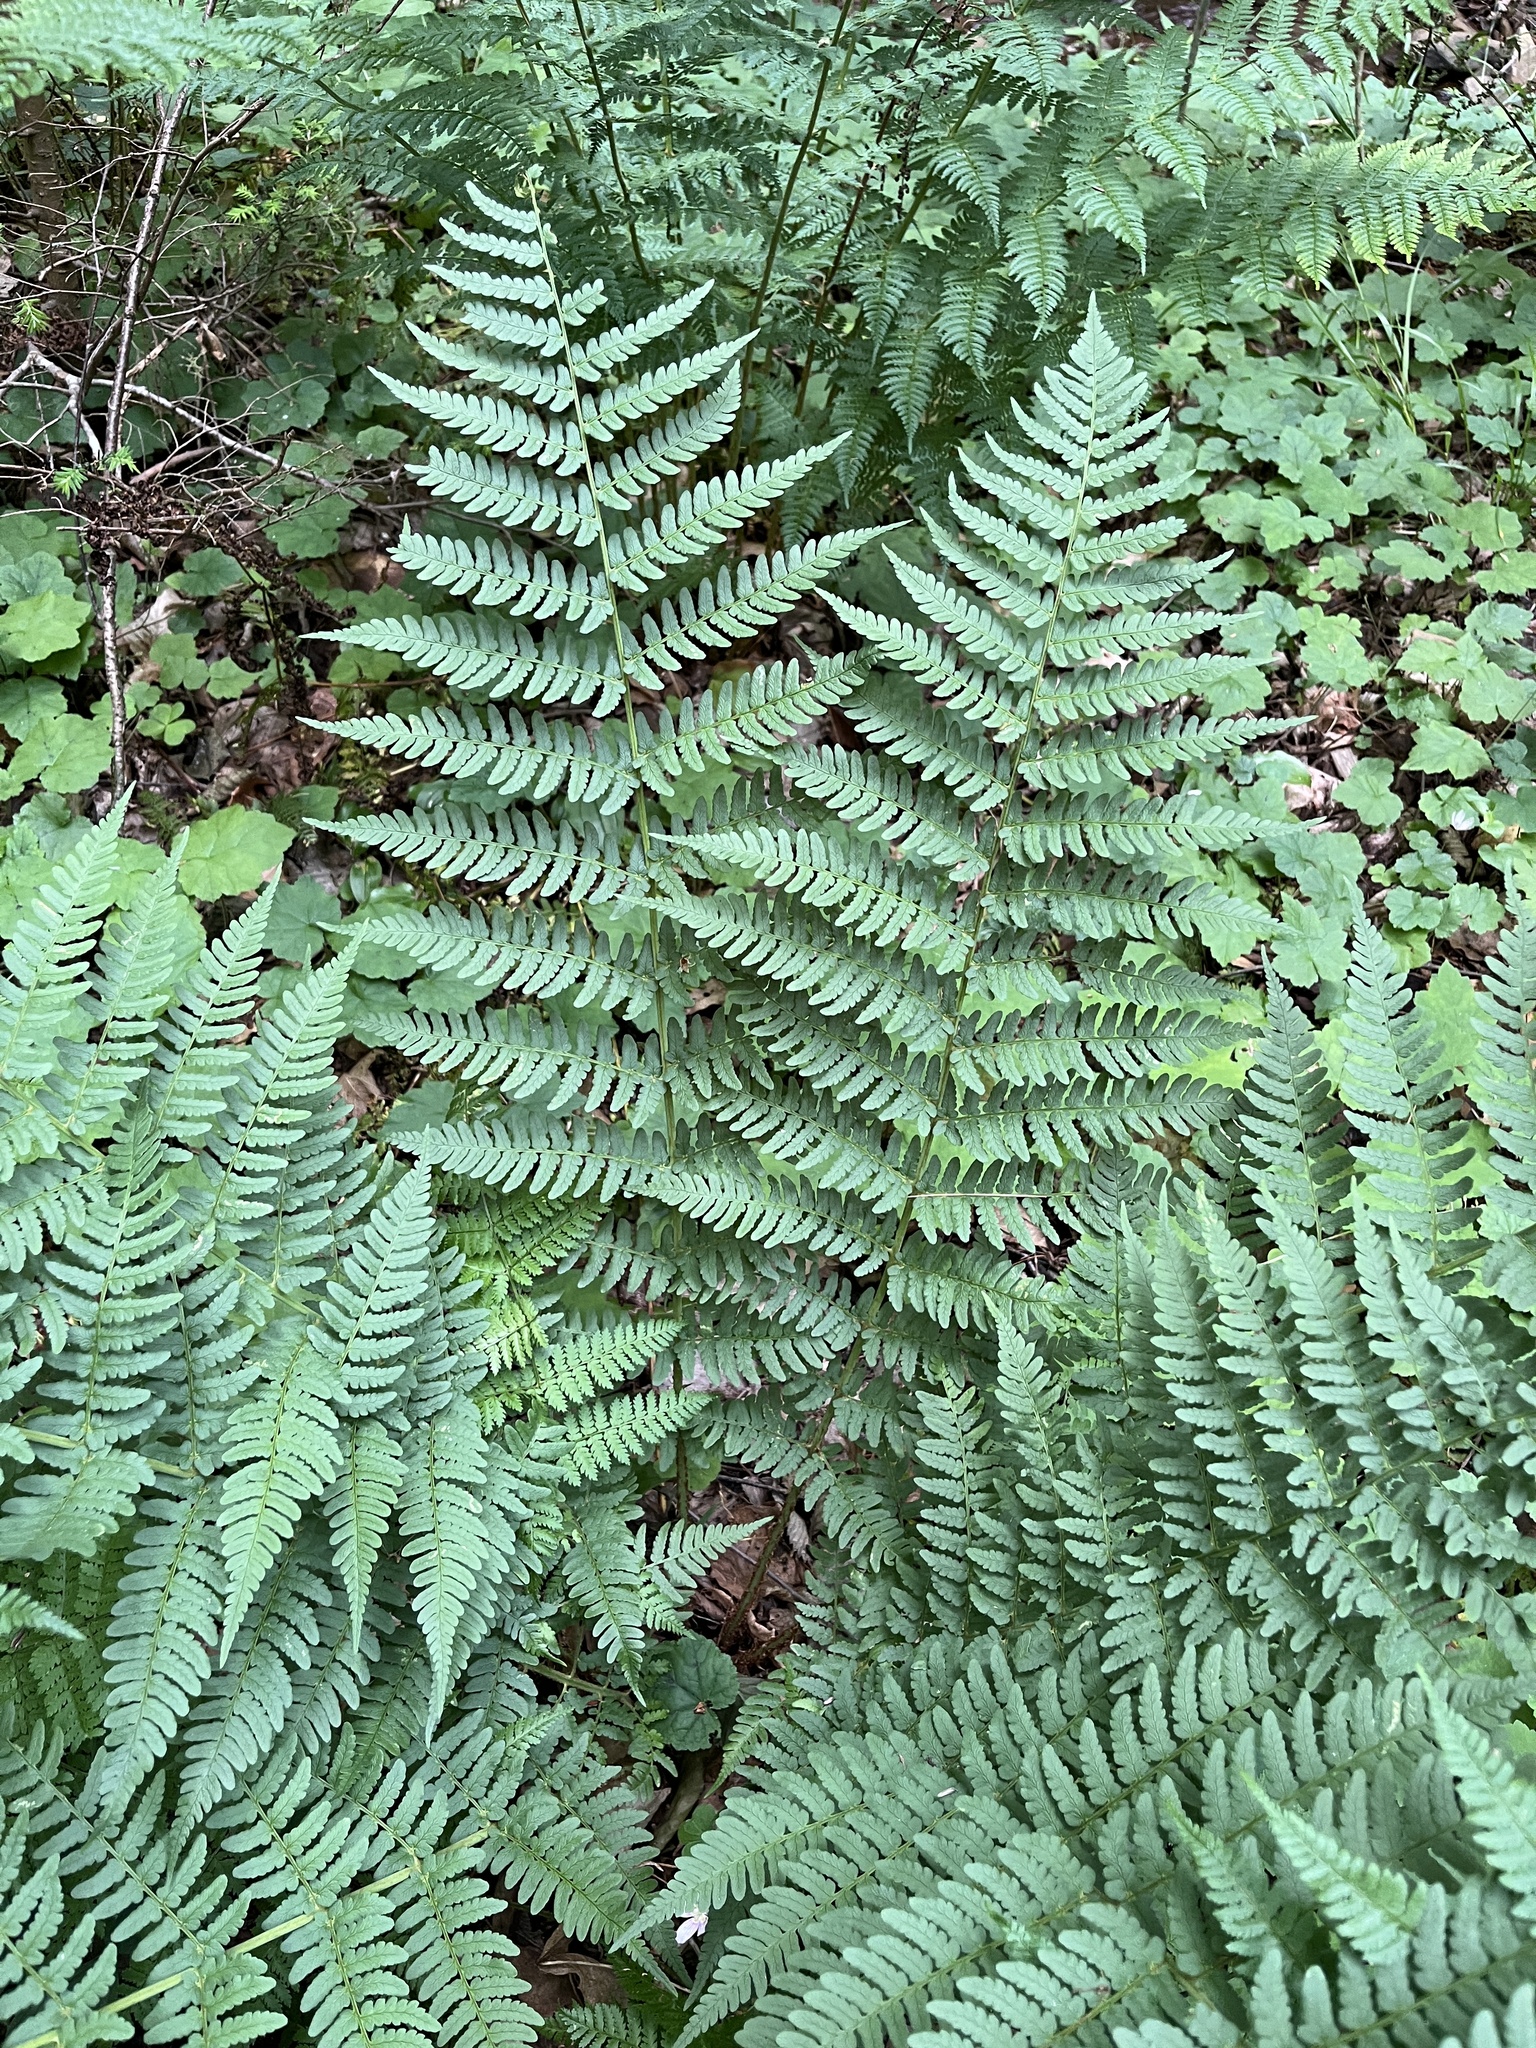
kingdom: Plantae
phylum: Tracheophyta
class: Polypodiopsida
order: Polypodiales
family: Dryopteridaceae
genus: Dryopteris
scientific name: Dryopteris marginalis
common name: Marginal wood fern
